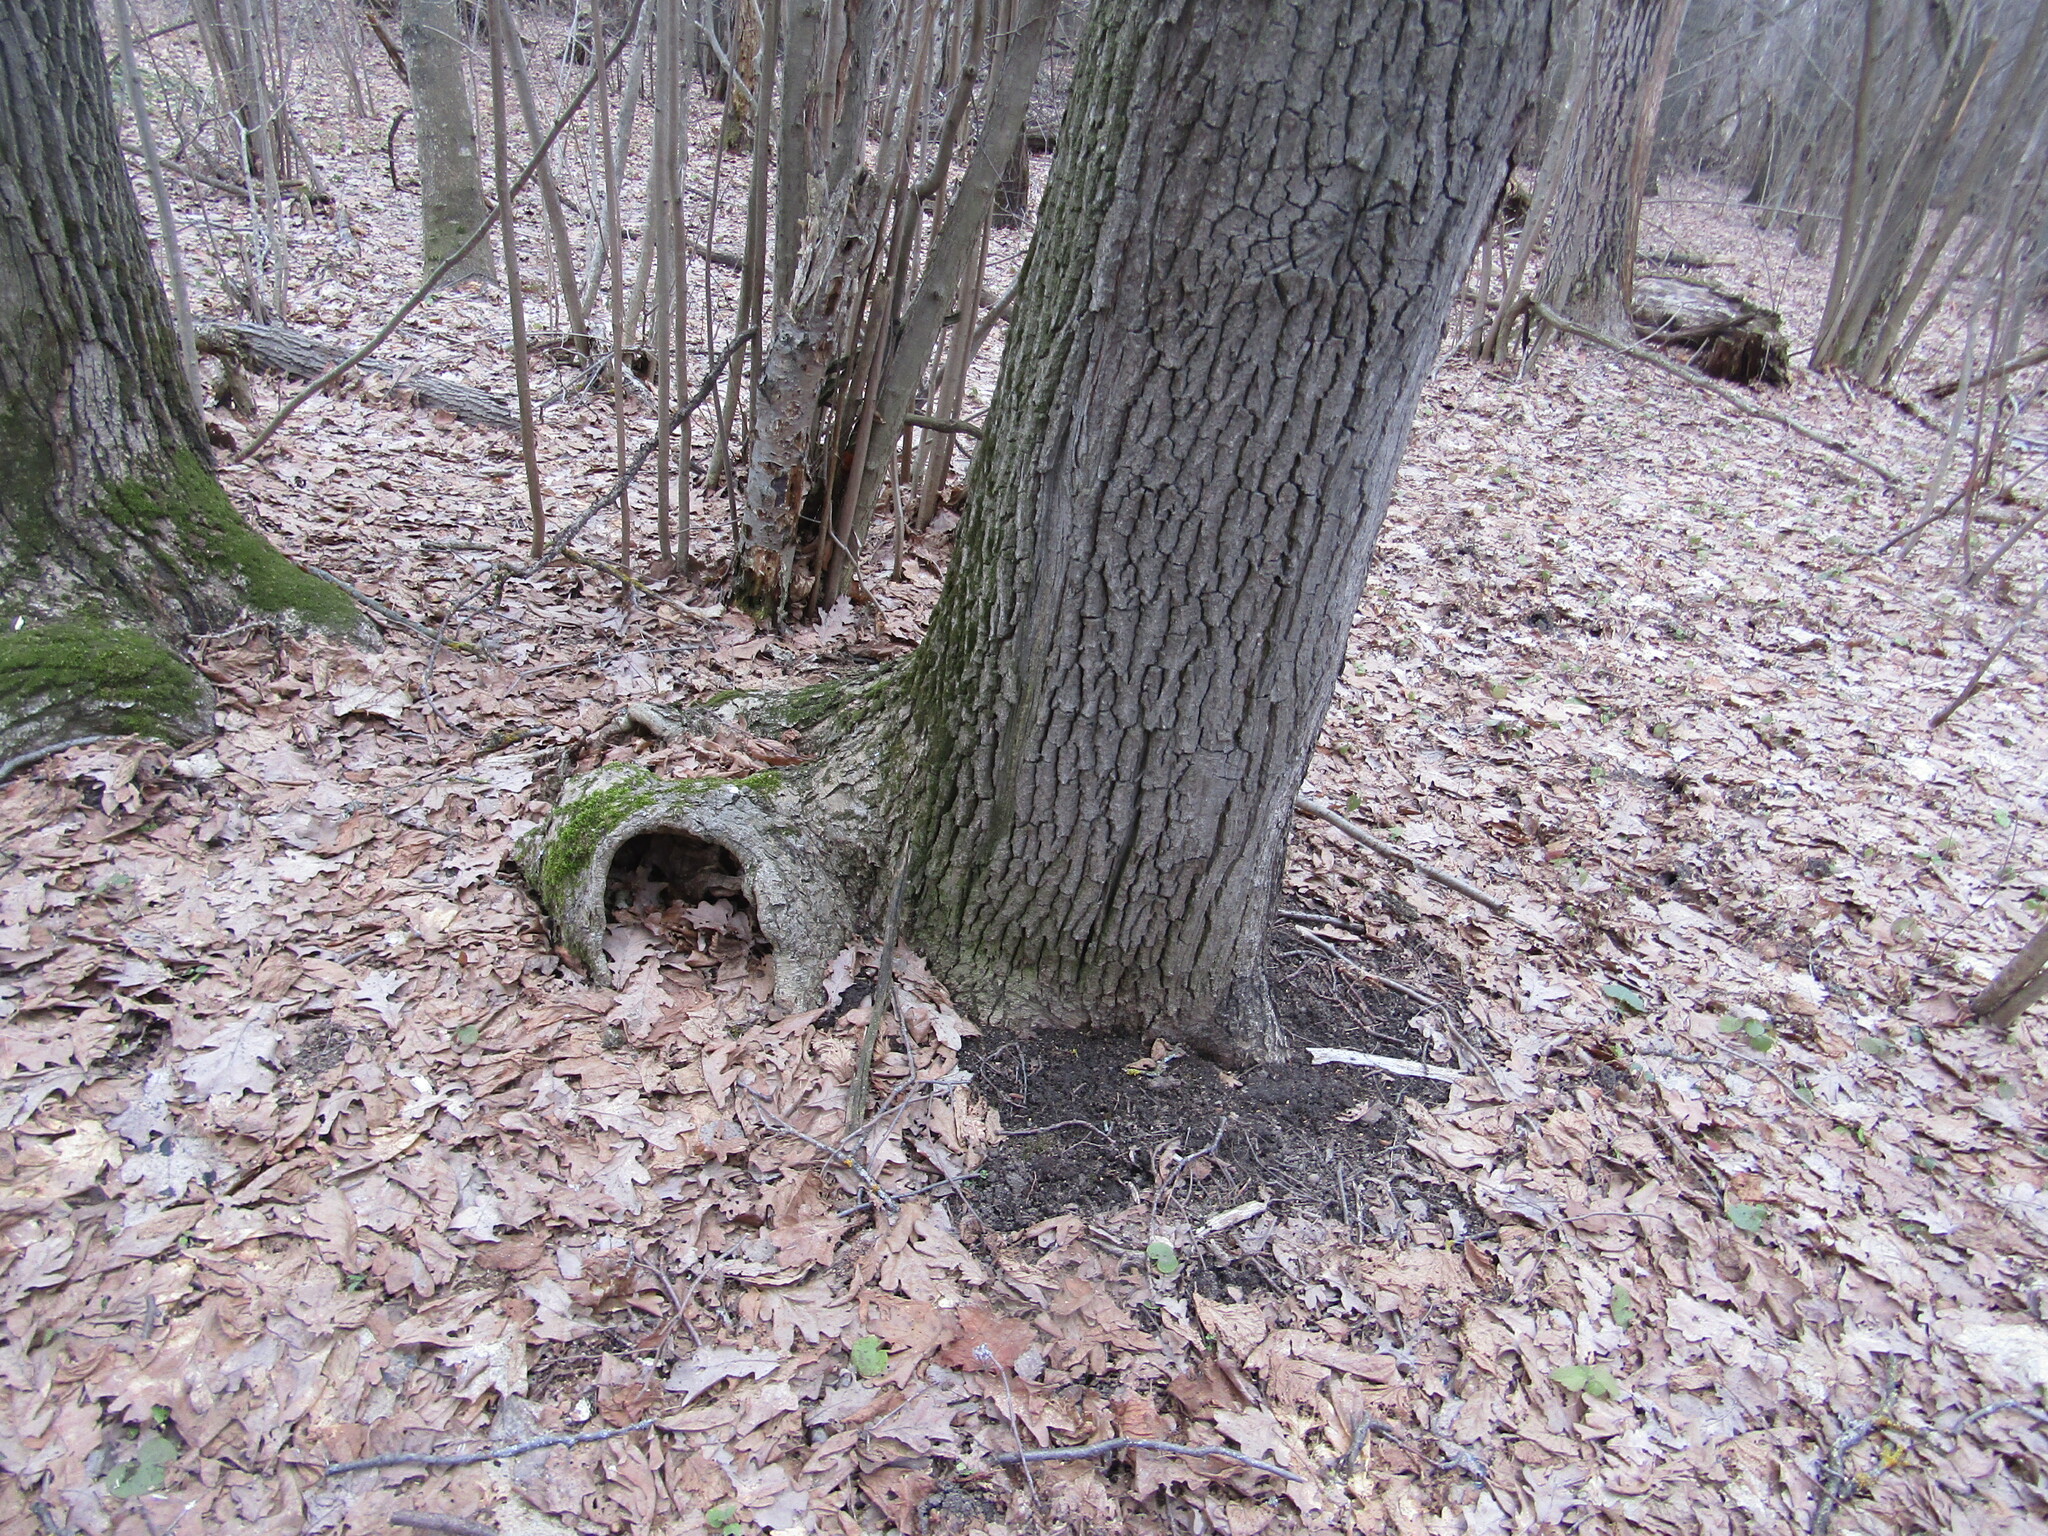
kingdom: Plantae
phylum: Tracheophyta
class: Magnoliopsida
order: Fagales
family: Fagaceae
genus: Quercus
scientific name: Quercus robur
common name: Pedunculate oak
